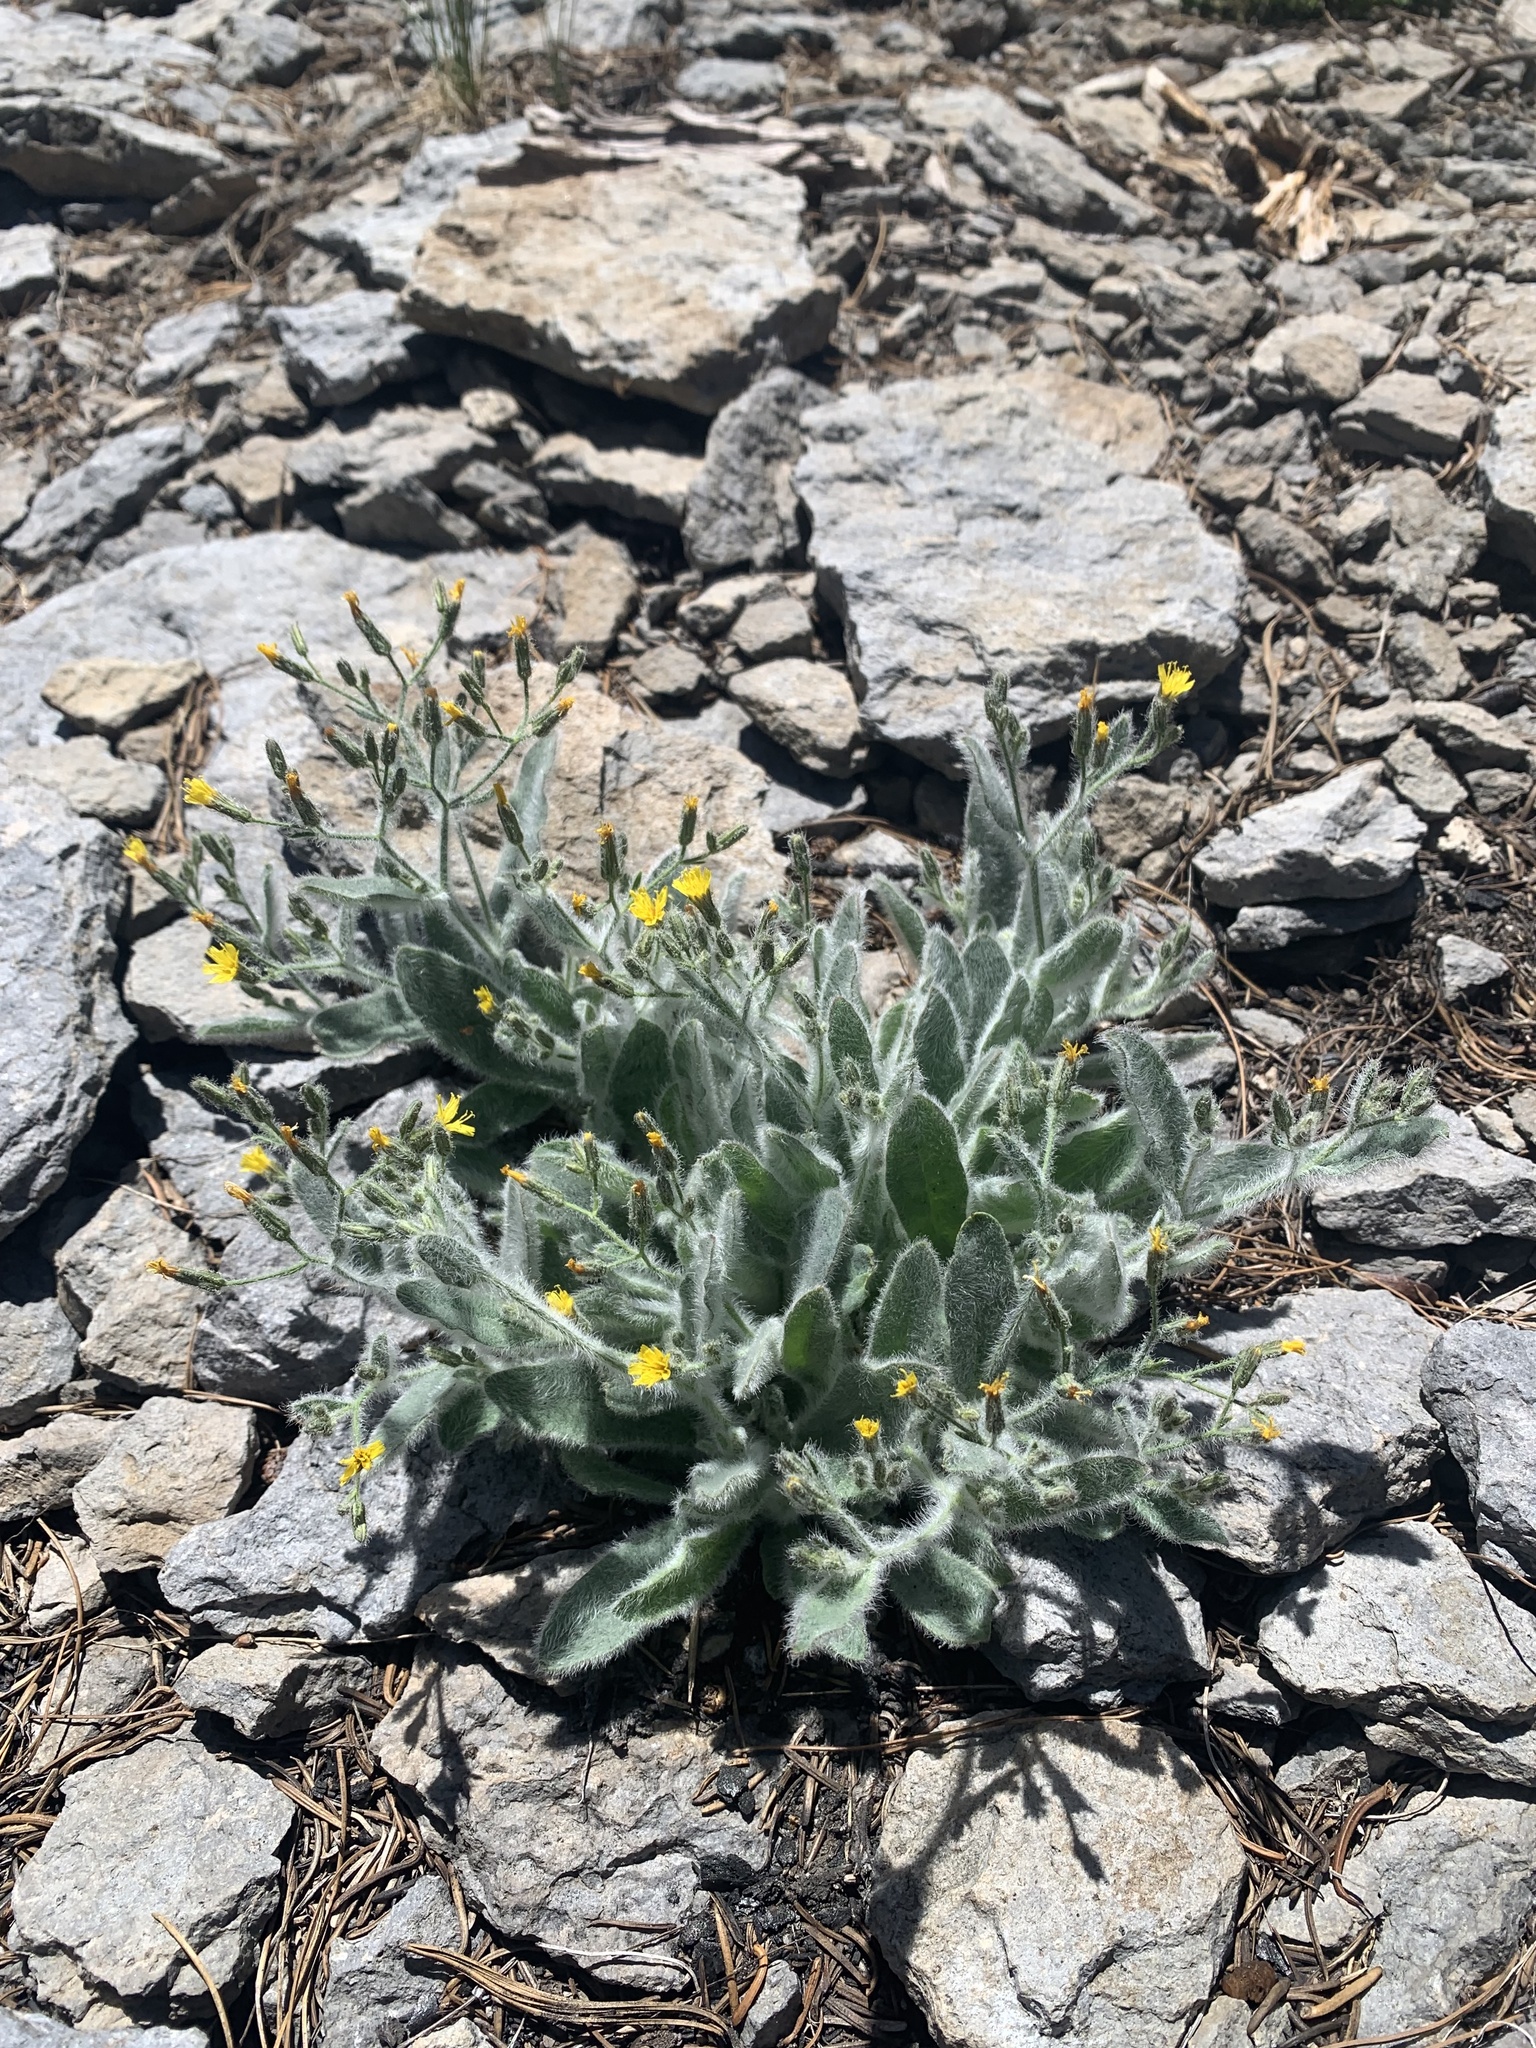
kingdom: Plantae
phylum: Tracheophyta
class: Magnoliopsida
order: Asterales
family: Asteraceae
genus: Hieracium
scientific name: Hieracium horridum
